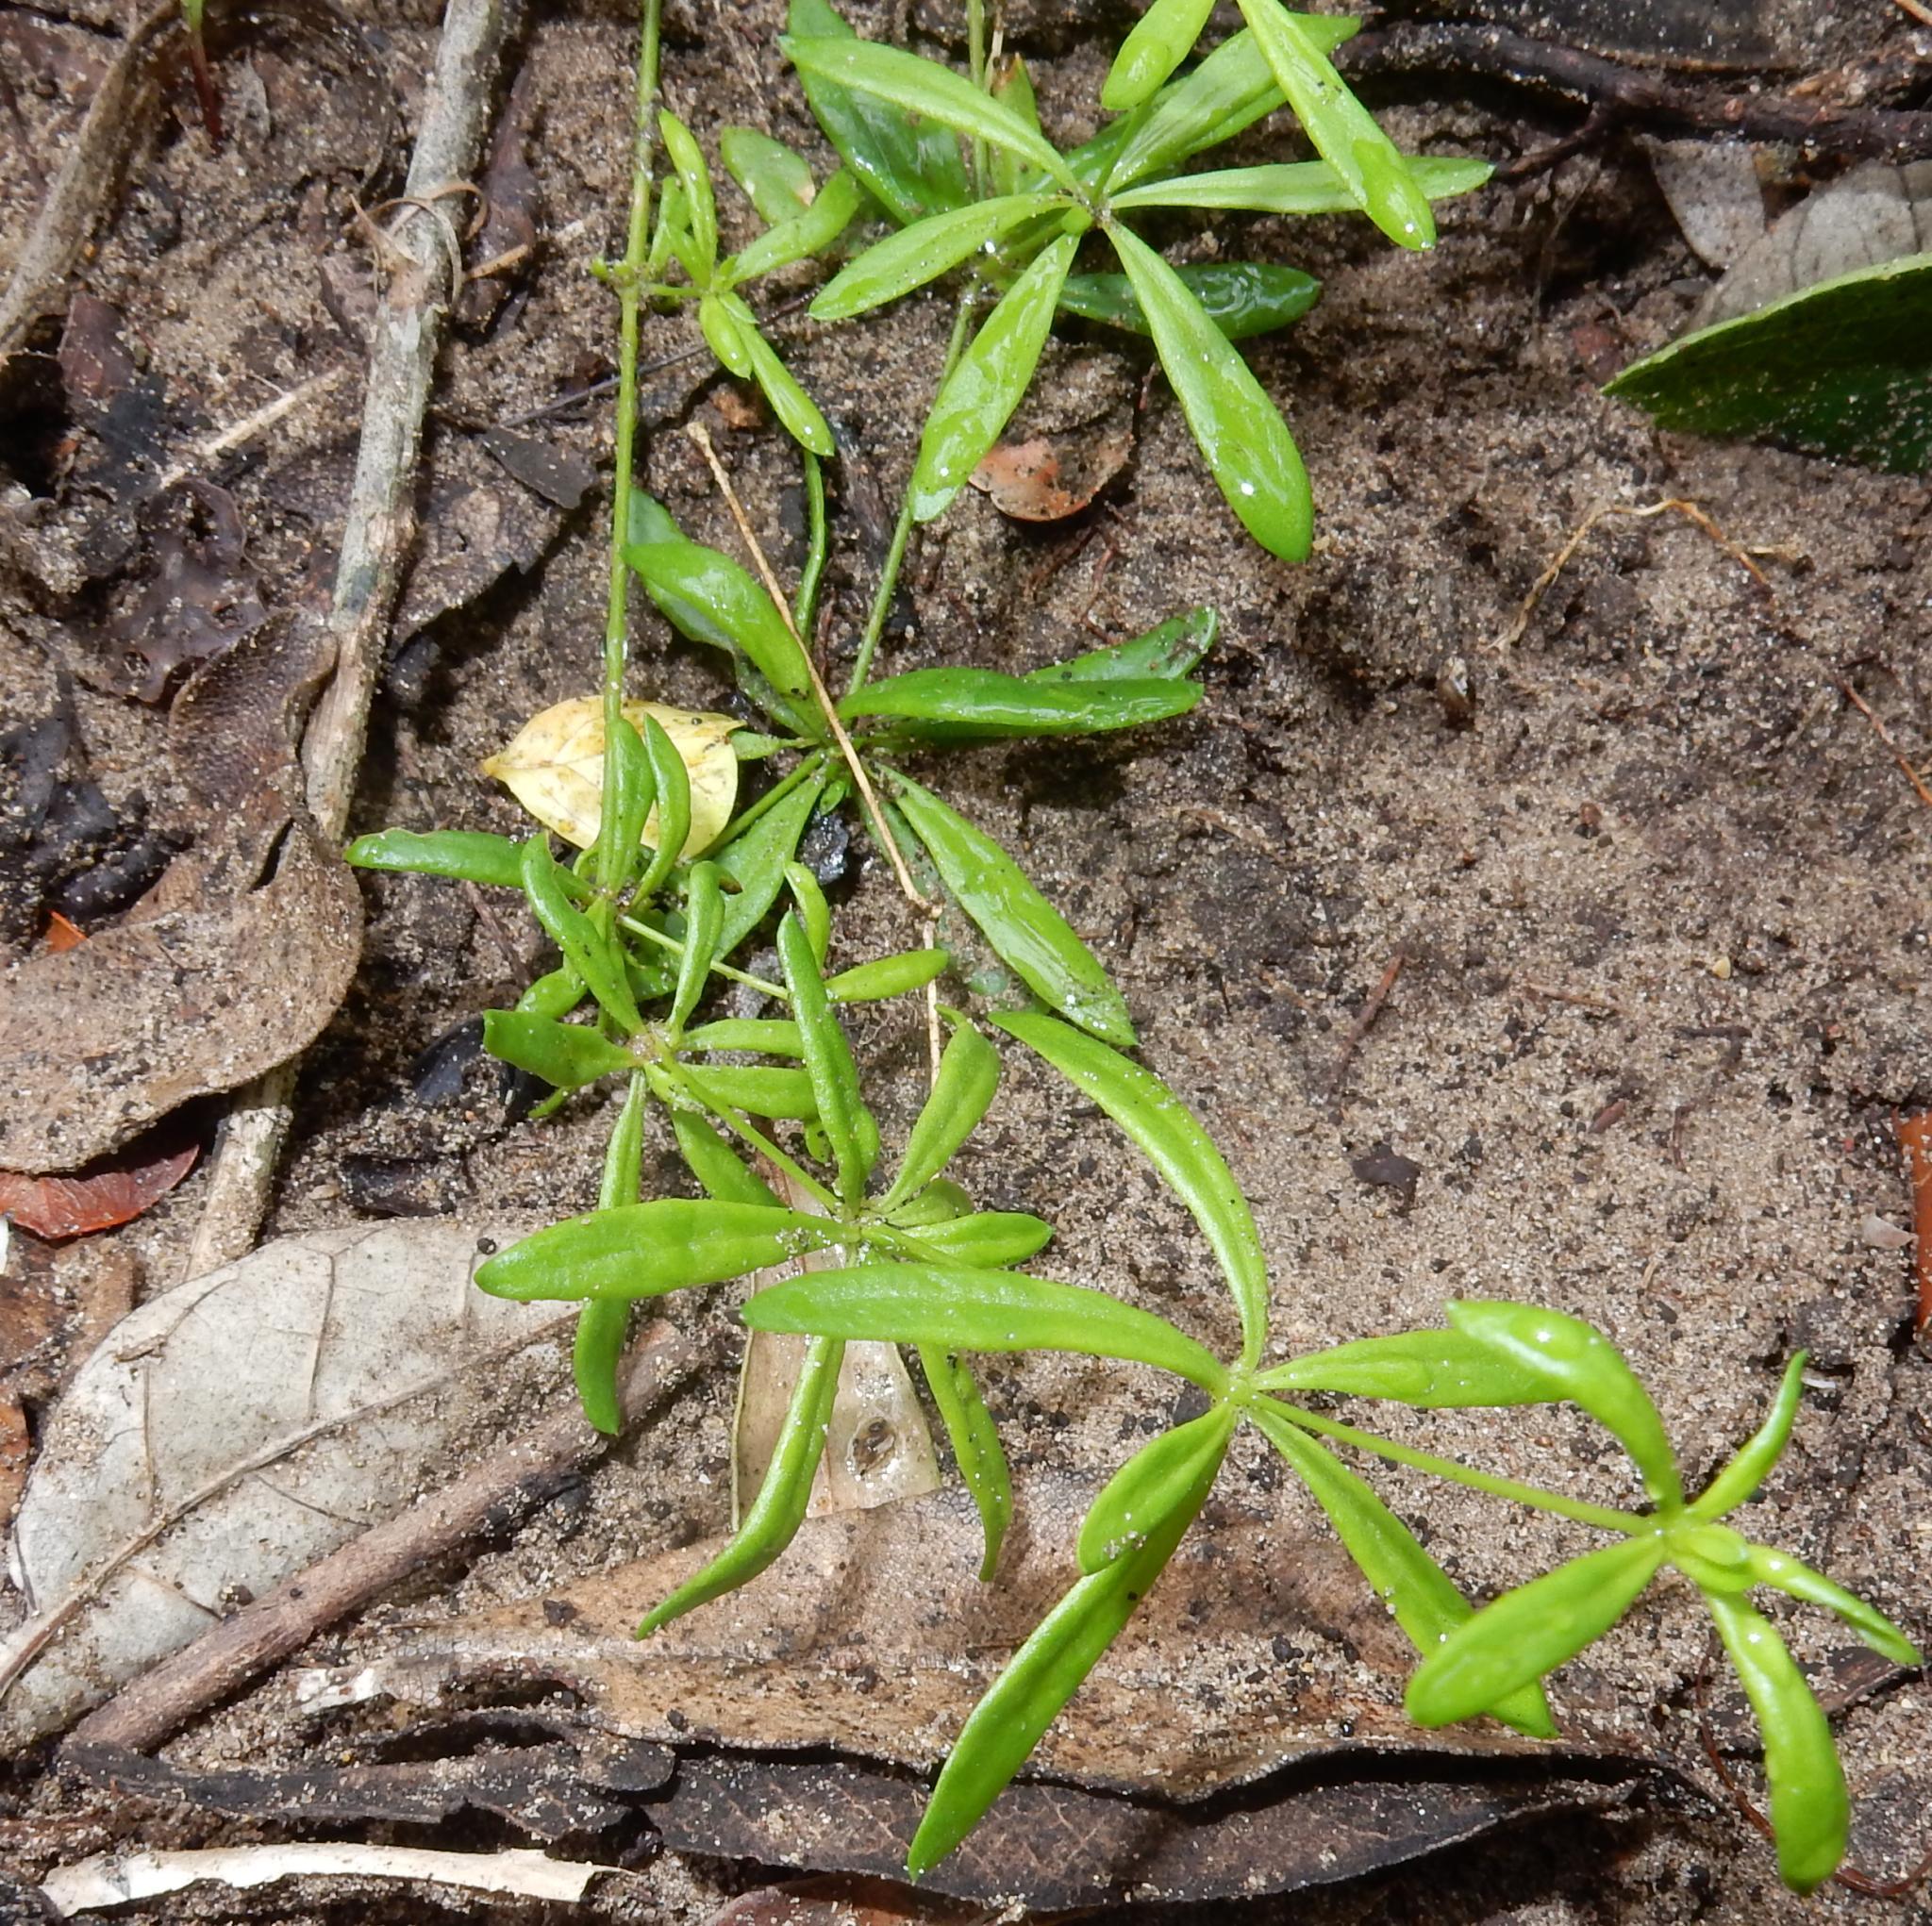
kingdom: Plantae
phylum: Tracheophyta
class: Magnoliopsida
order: Caryophyllales
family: Molluginaceae
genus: Pharnaceum
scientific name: Pharnaceum thunbergii
